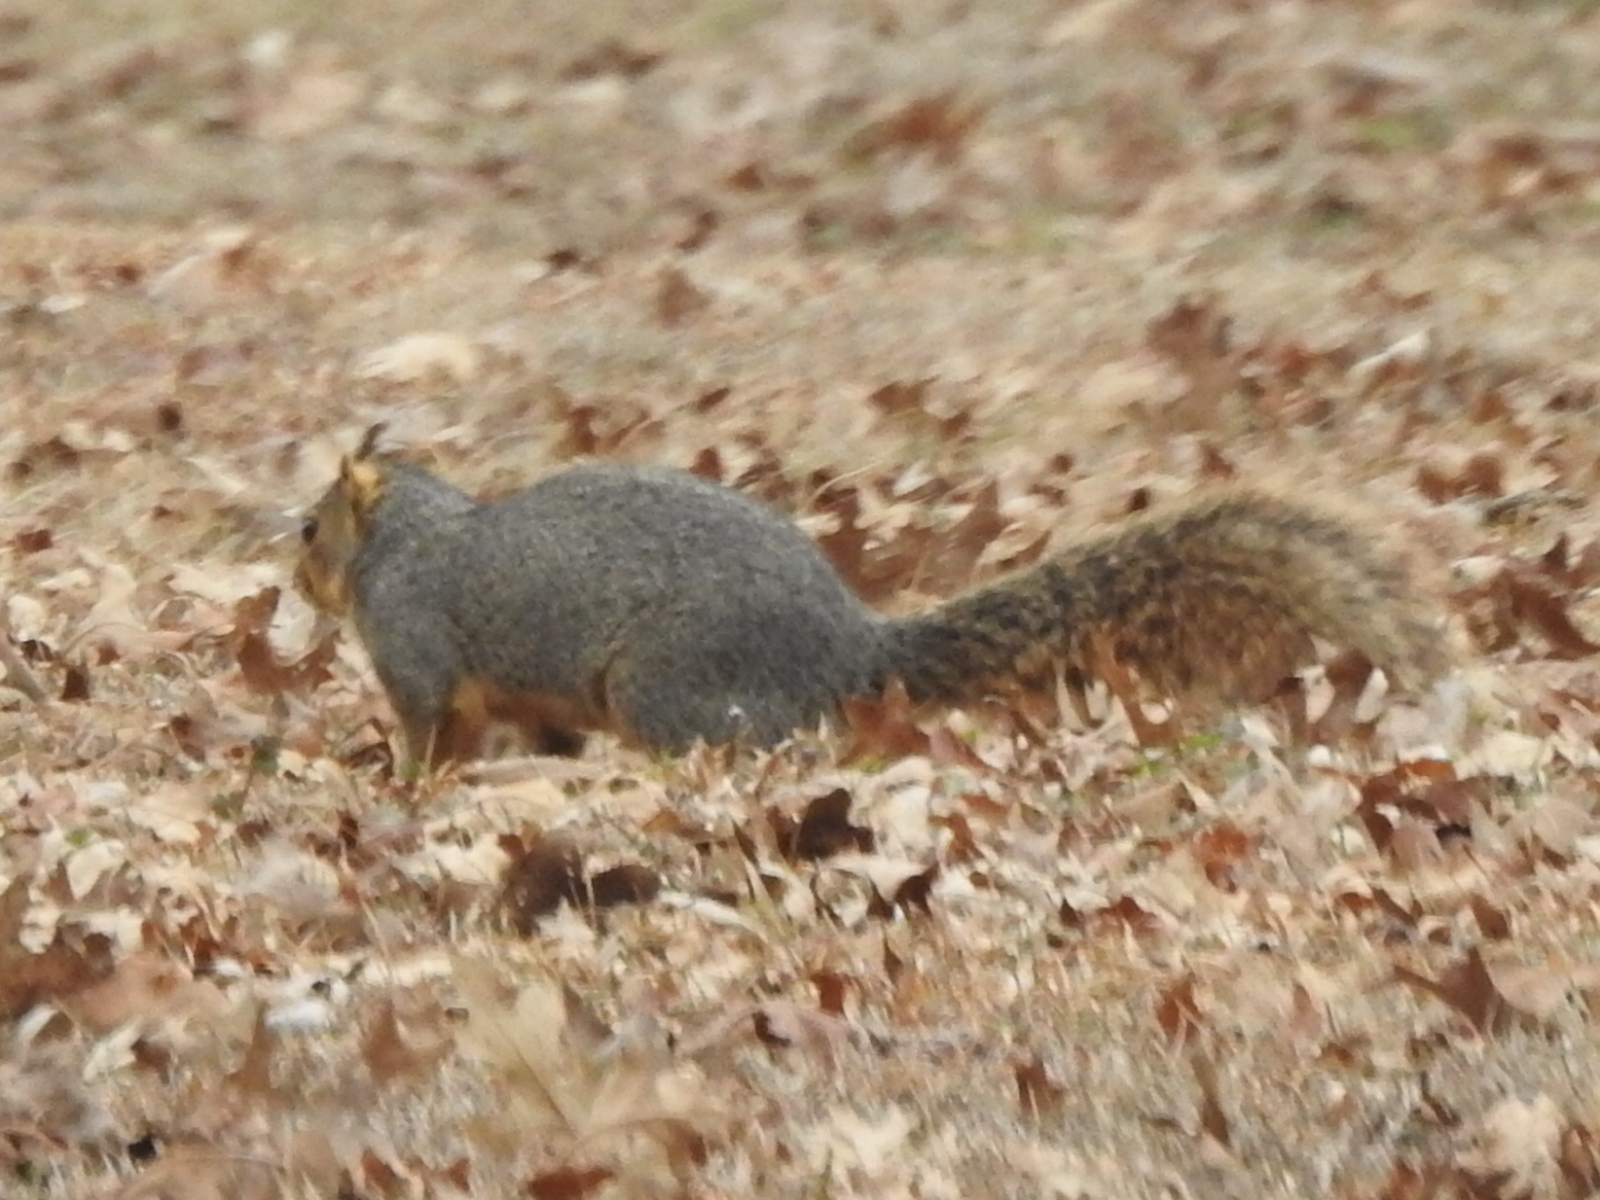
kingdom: Animalia
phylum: Chordata
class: Mammalia
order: Rodentia
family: Sciuridae
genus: Sciurus
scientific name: Sciurus niger
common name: Fox squirrel
